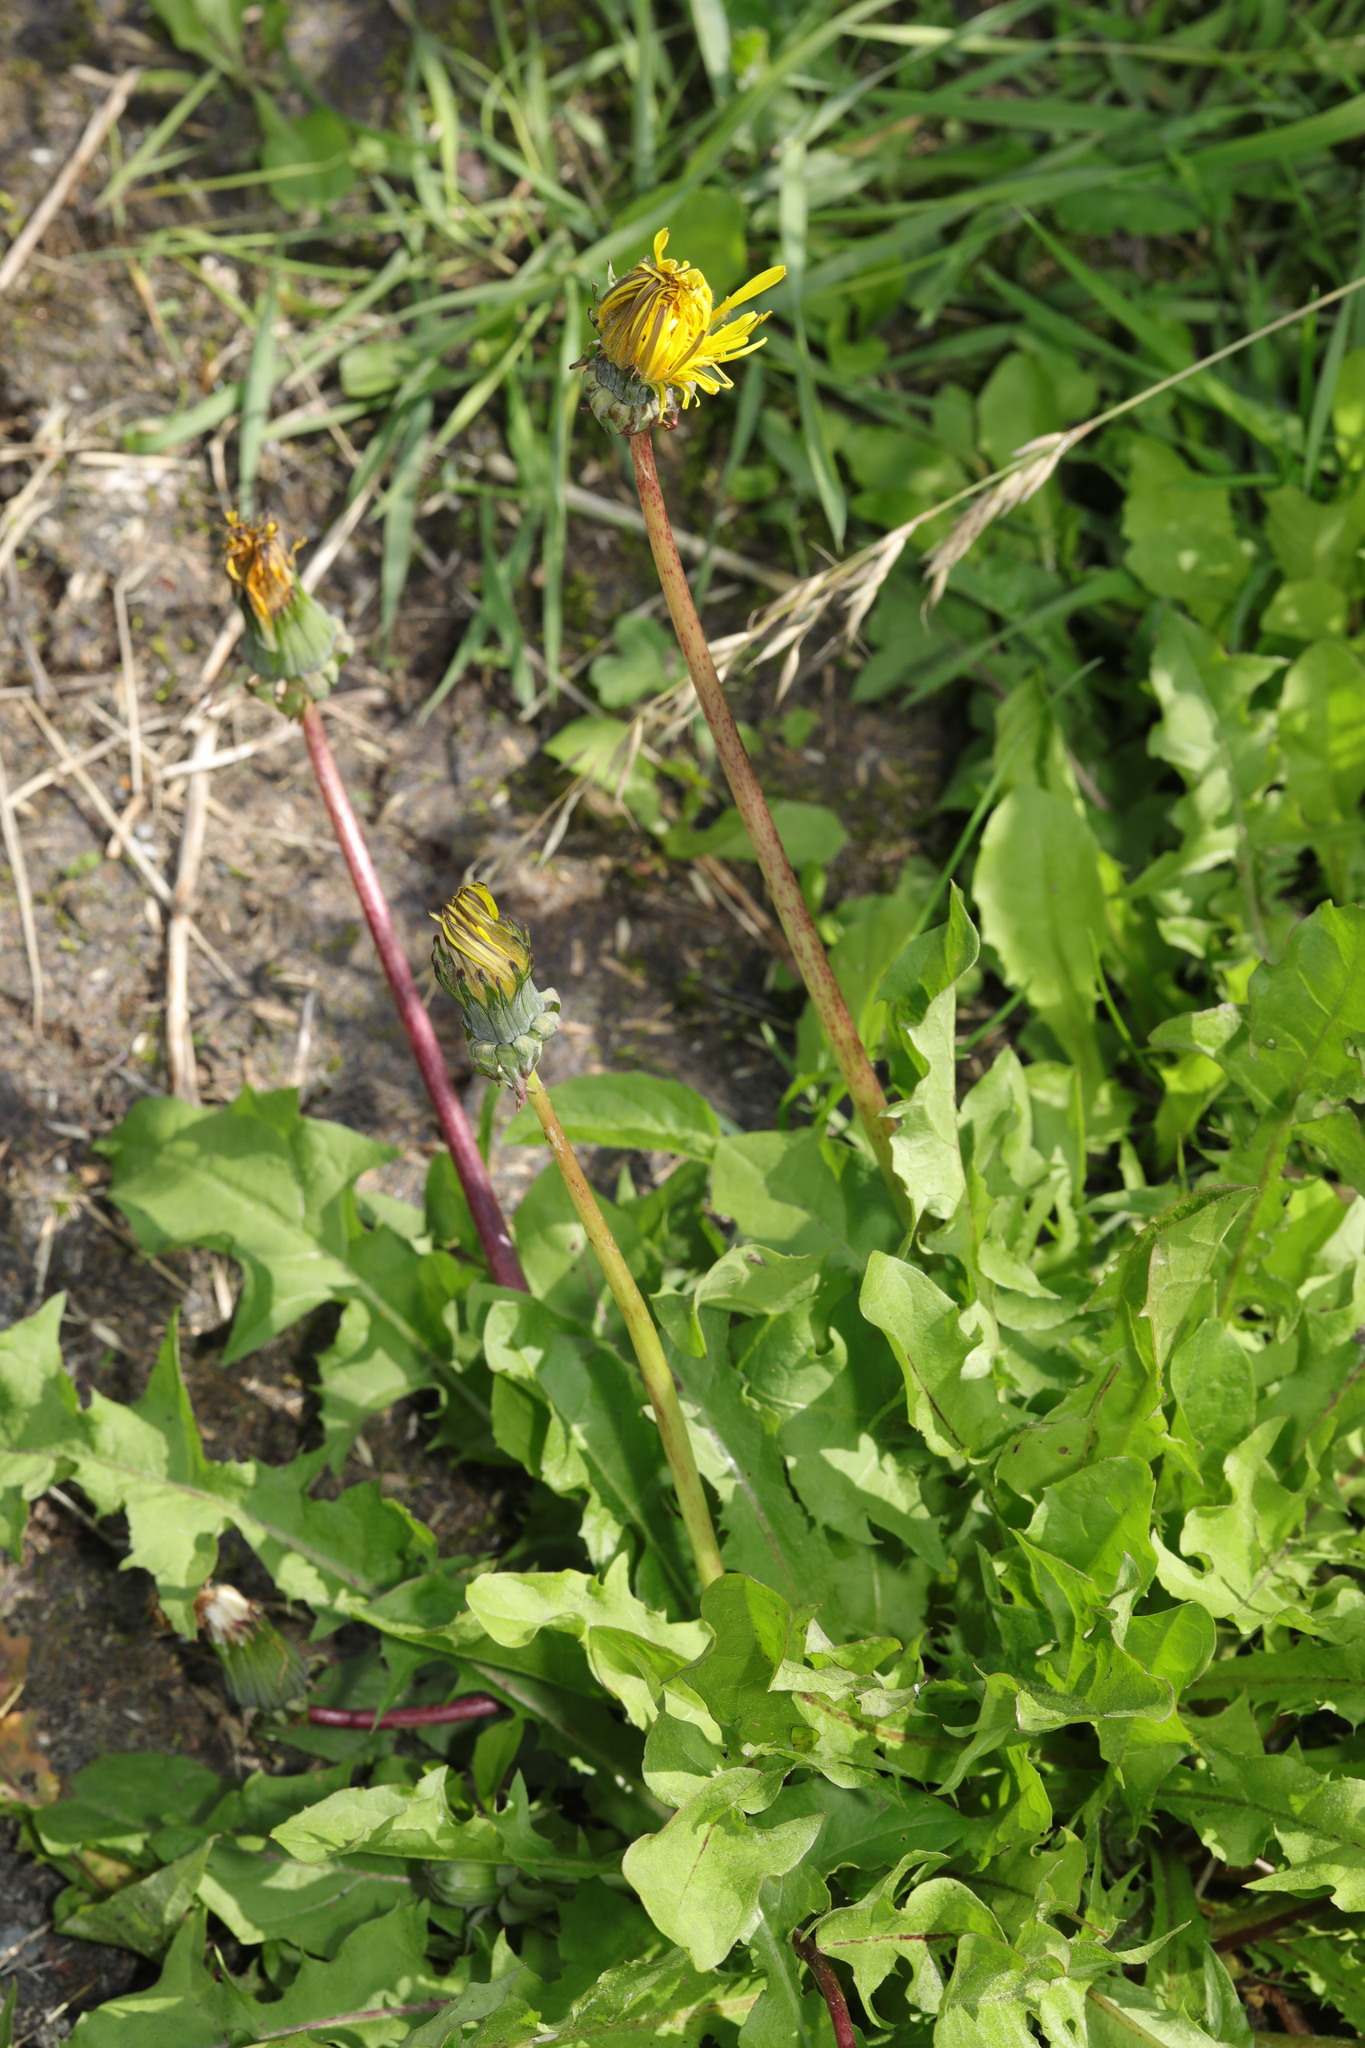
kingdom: Plantae
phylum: Tracheophyta
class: Magnoliopsida
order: Asterales
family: Asteraceae
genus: Taraxacum
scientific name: Taraxacum officinale
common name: Common dandelion
